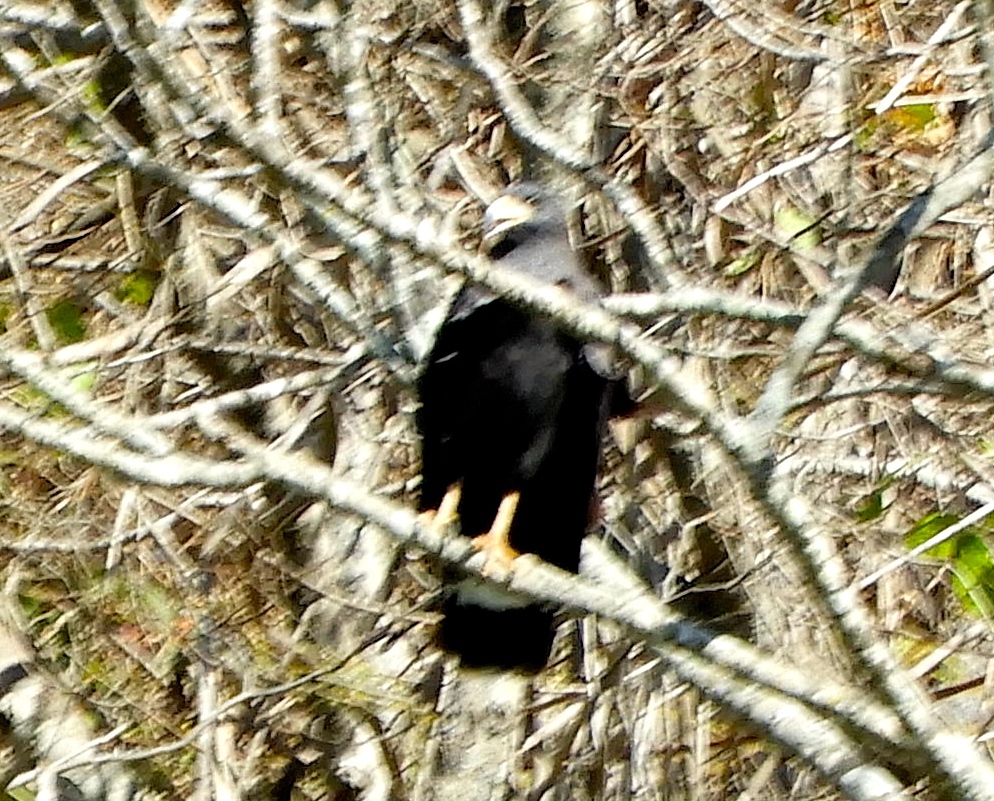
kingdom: Animalia
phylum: Chordata
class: Aves
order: Accipitriformes
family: Accipitridae
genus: Buteogallus
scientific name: Buteogallus anthracinus
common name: Common black hawk
